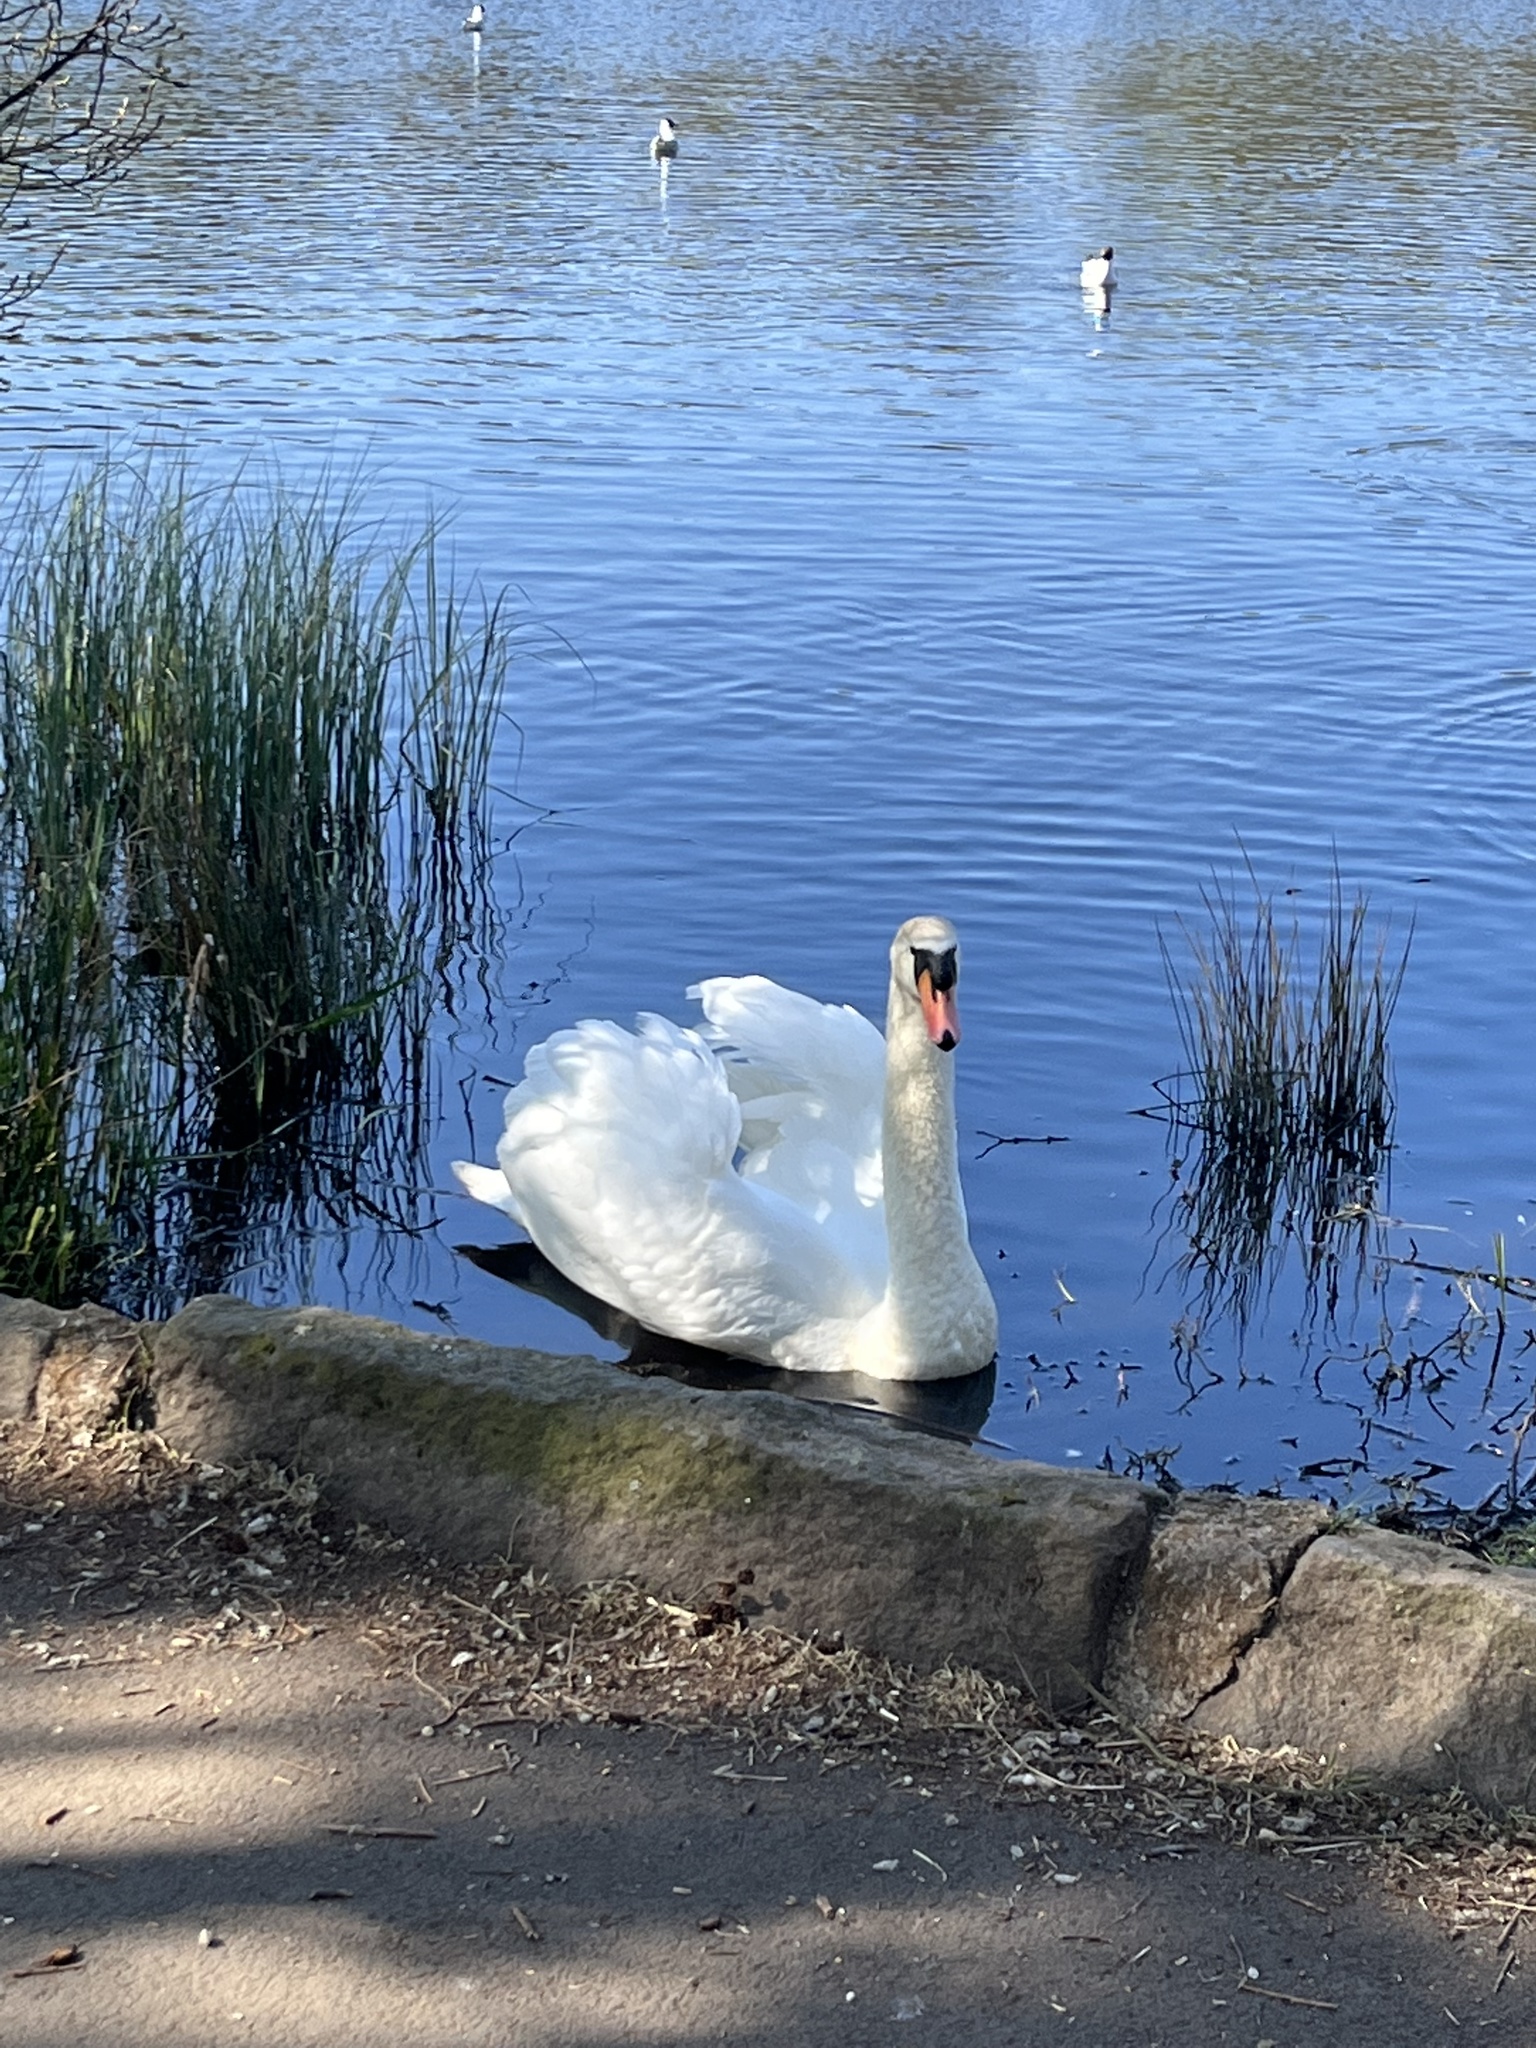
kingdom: Animalia
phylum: Chordata
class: Aves
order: Anseriformes
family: Anatidae
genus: Cygnus
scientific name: Cygnus olor
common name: Mute swan
